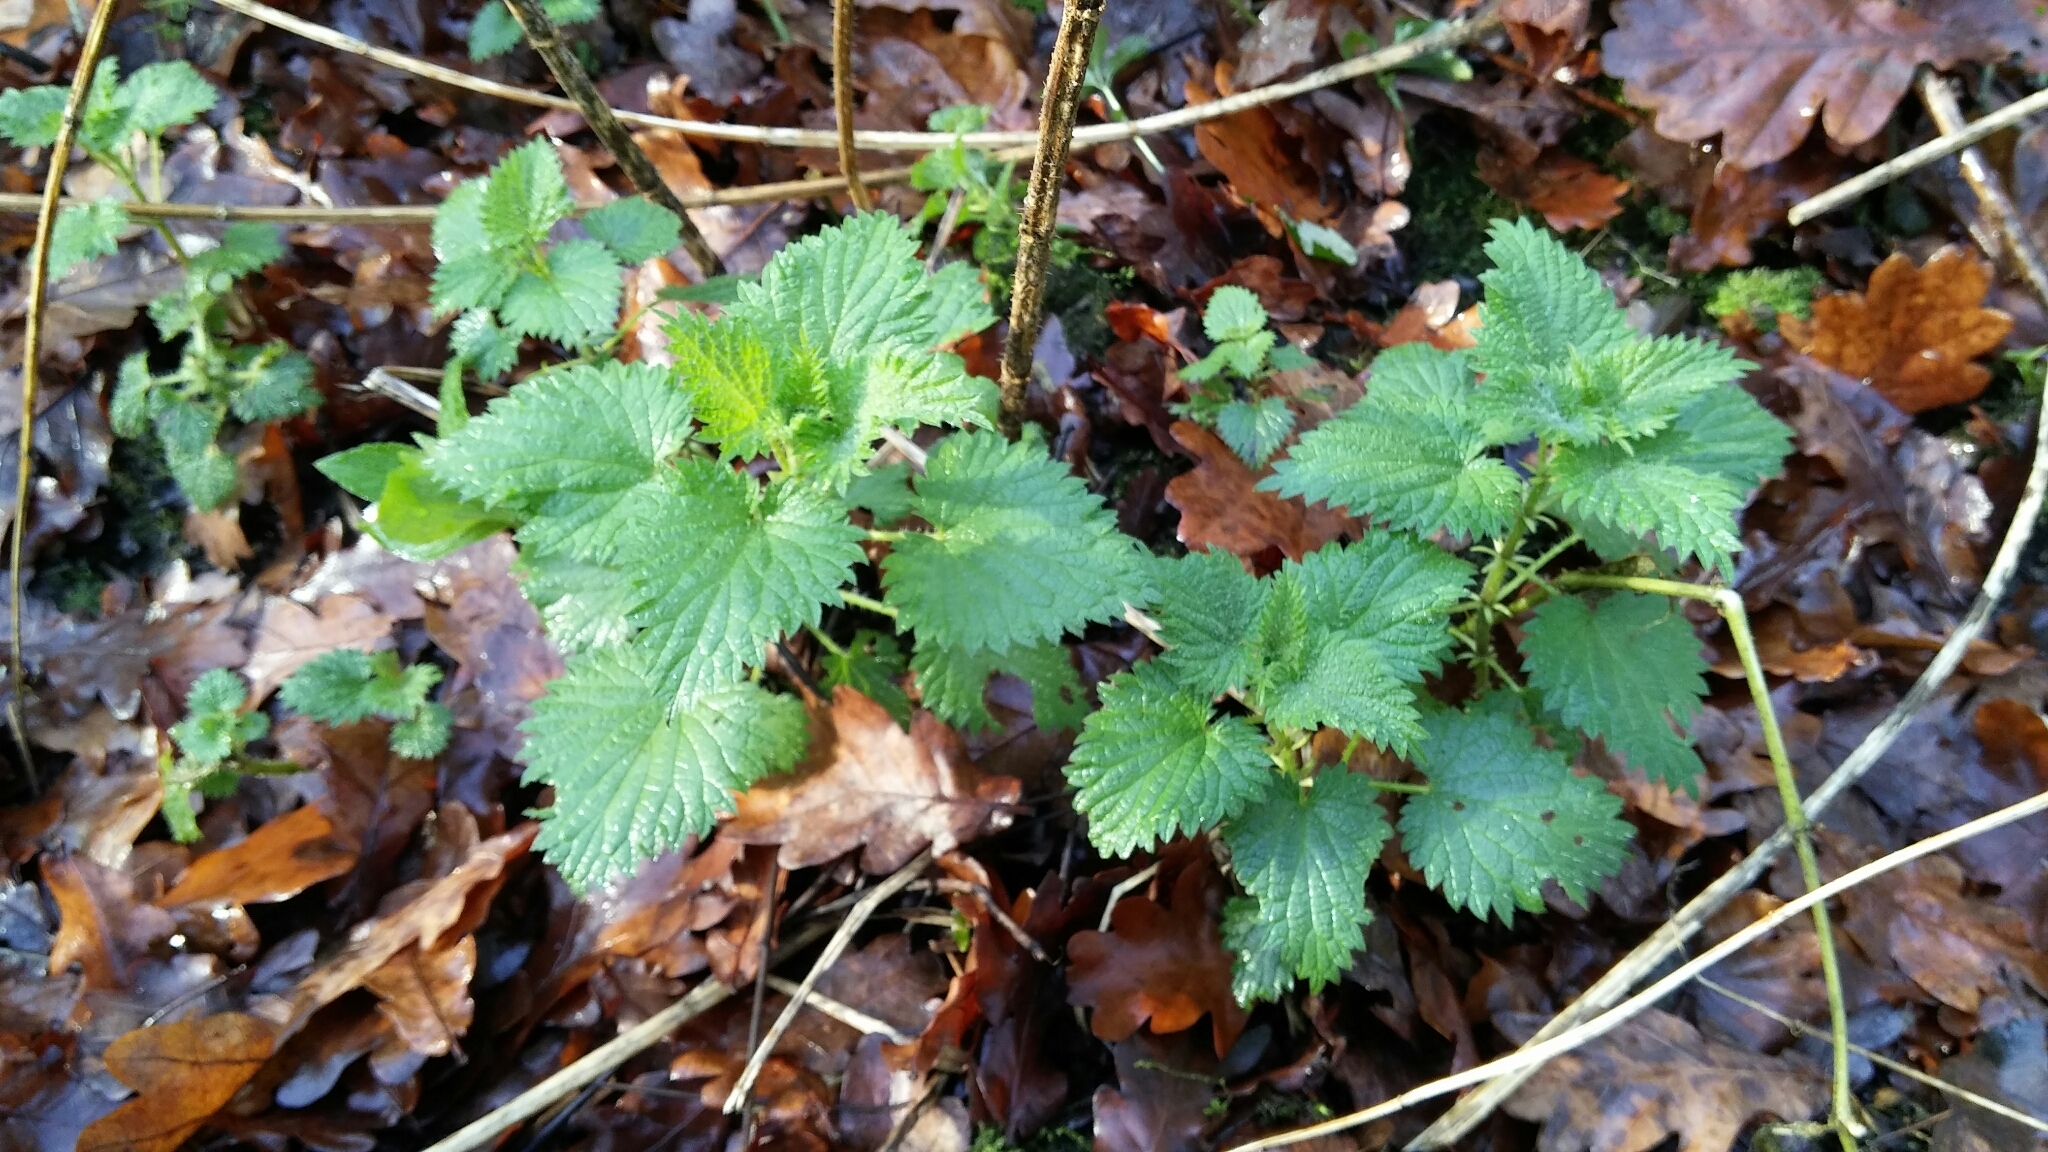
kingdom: Plantae
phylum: Tracheophyta
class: Magnoliopsida
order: Rosales
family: Urticaceae
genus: Urtica
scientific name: Urtica dioica
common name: Common nettle
